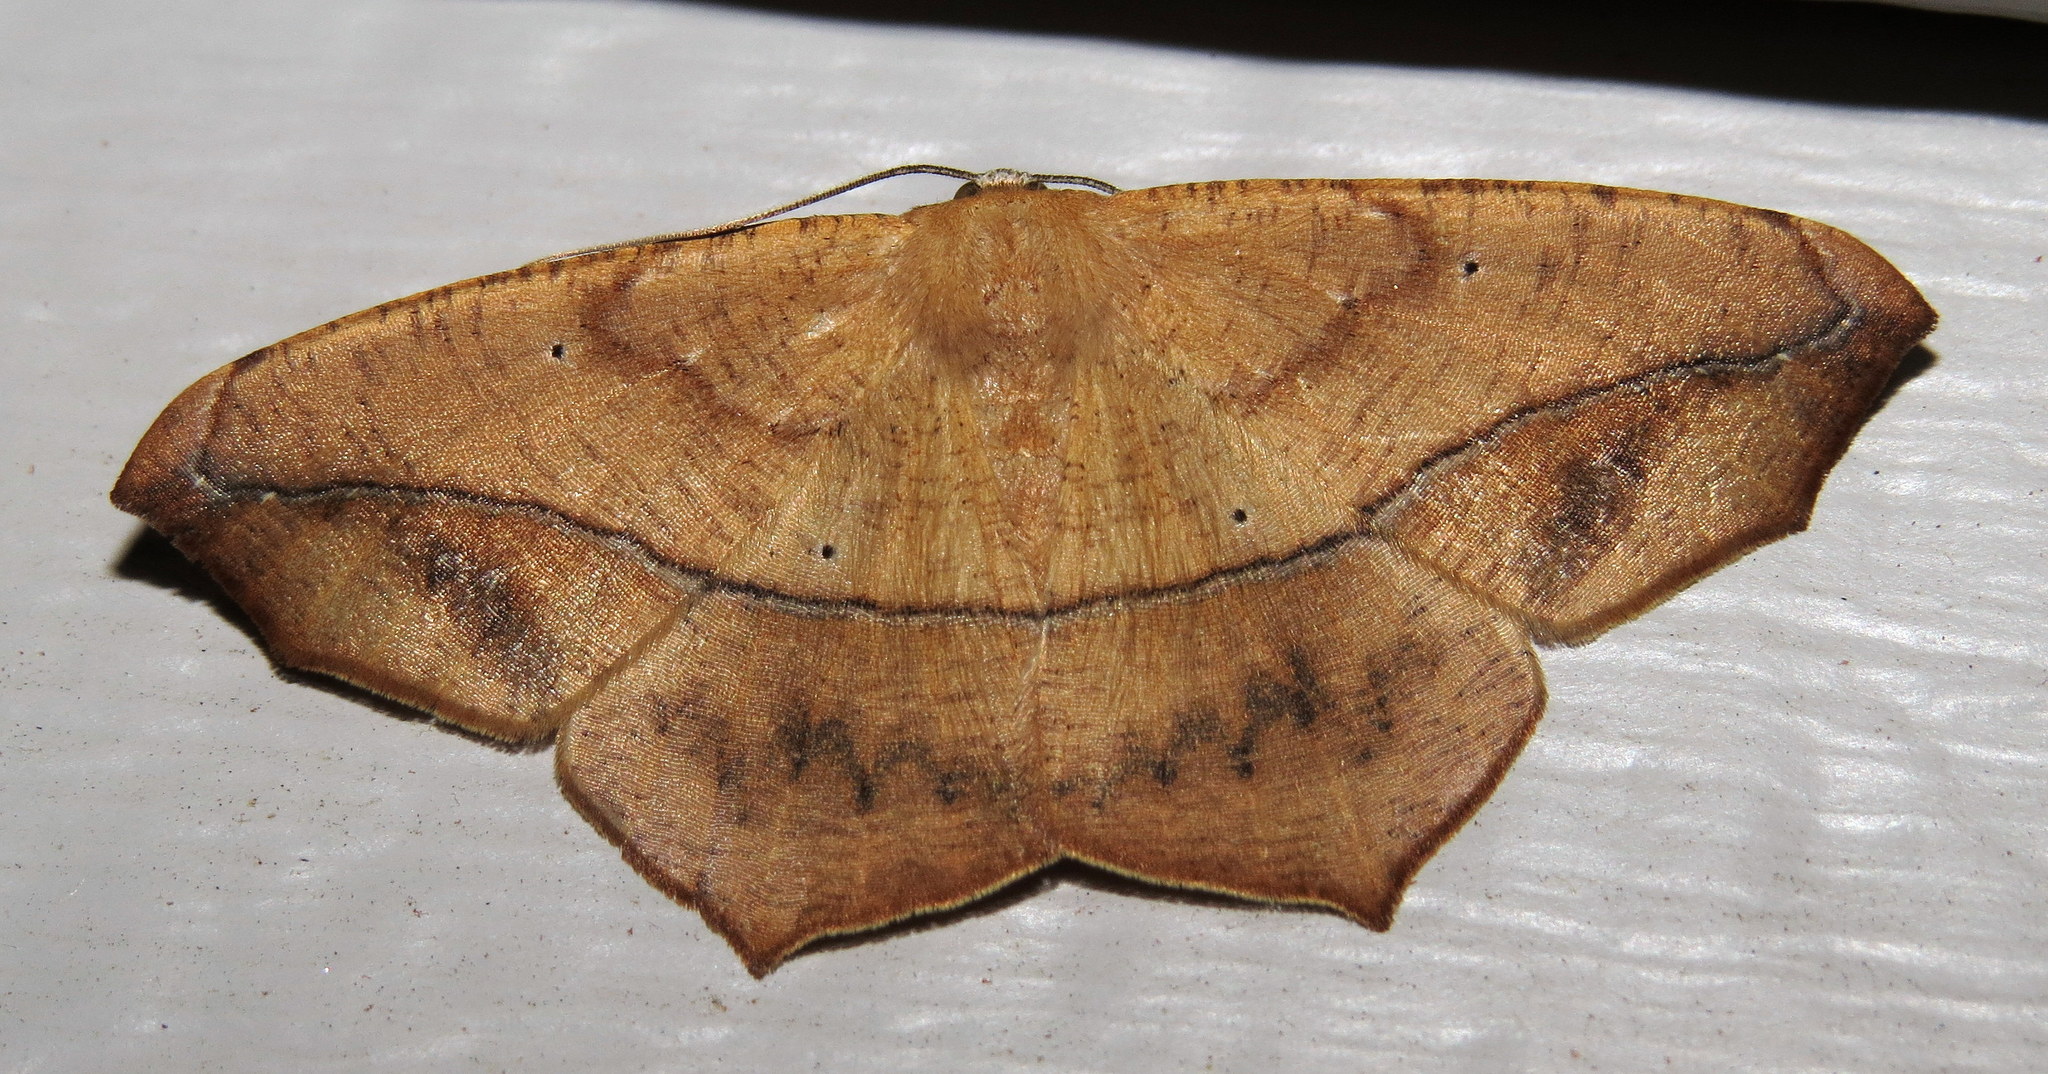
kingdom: Animalia
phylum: Arthropoda
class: Insecta
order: Lepidoptera
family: Geometridae
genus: Prochoerodes
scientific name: Prochoerodes lineola
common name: Large maple spanworm
